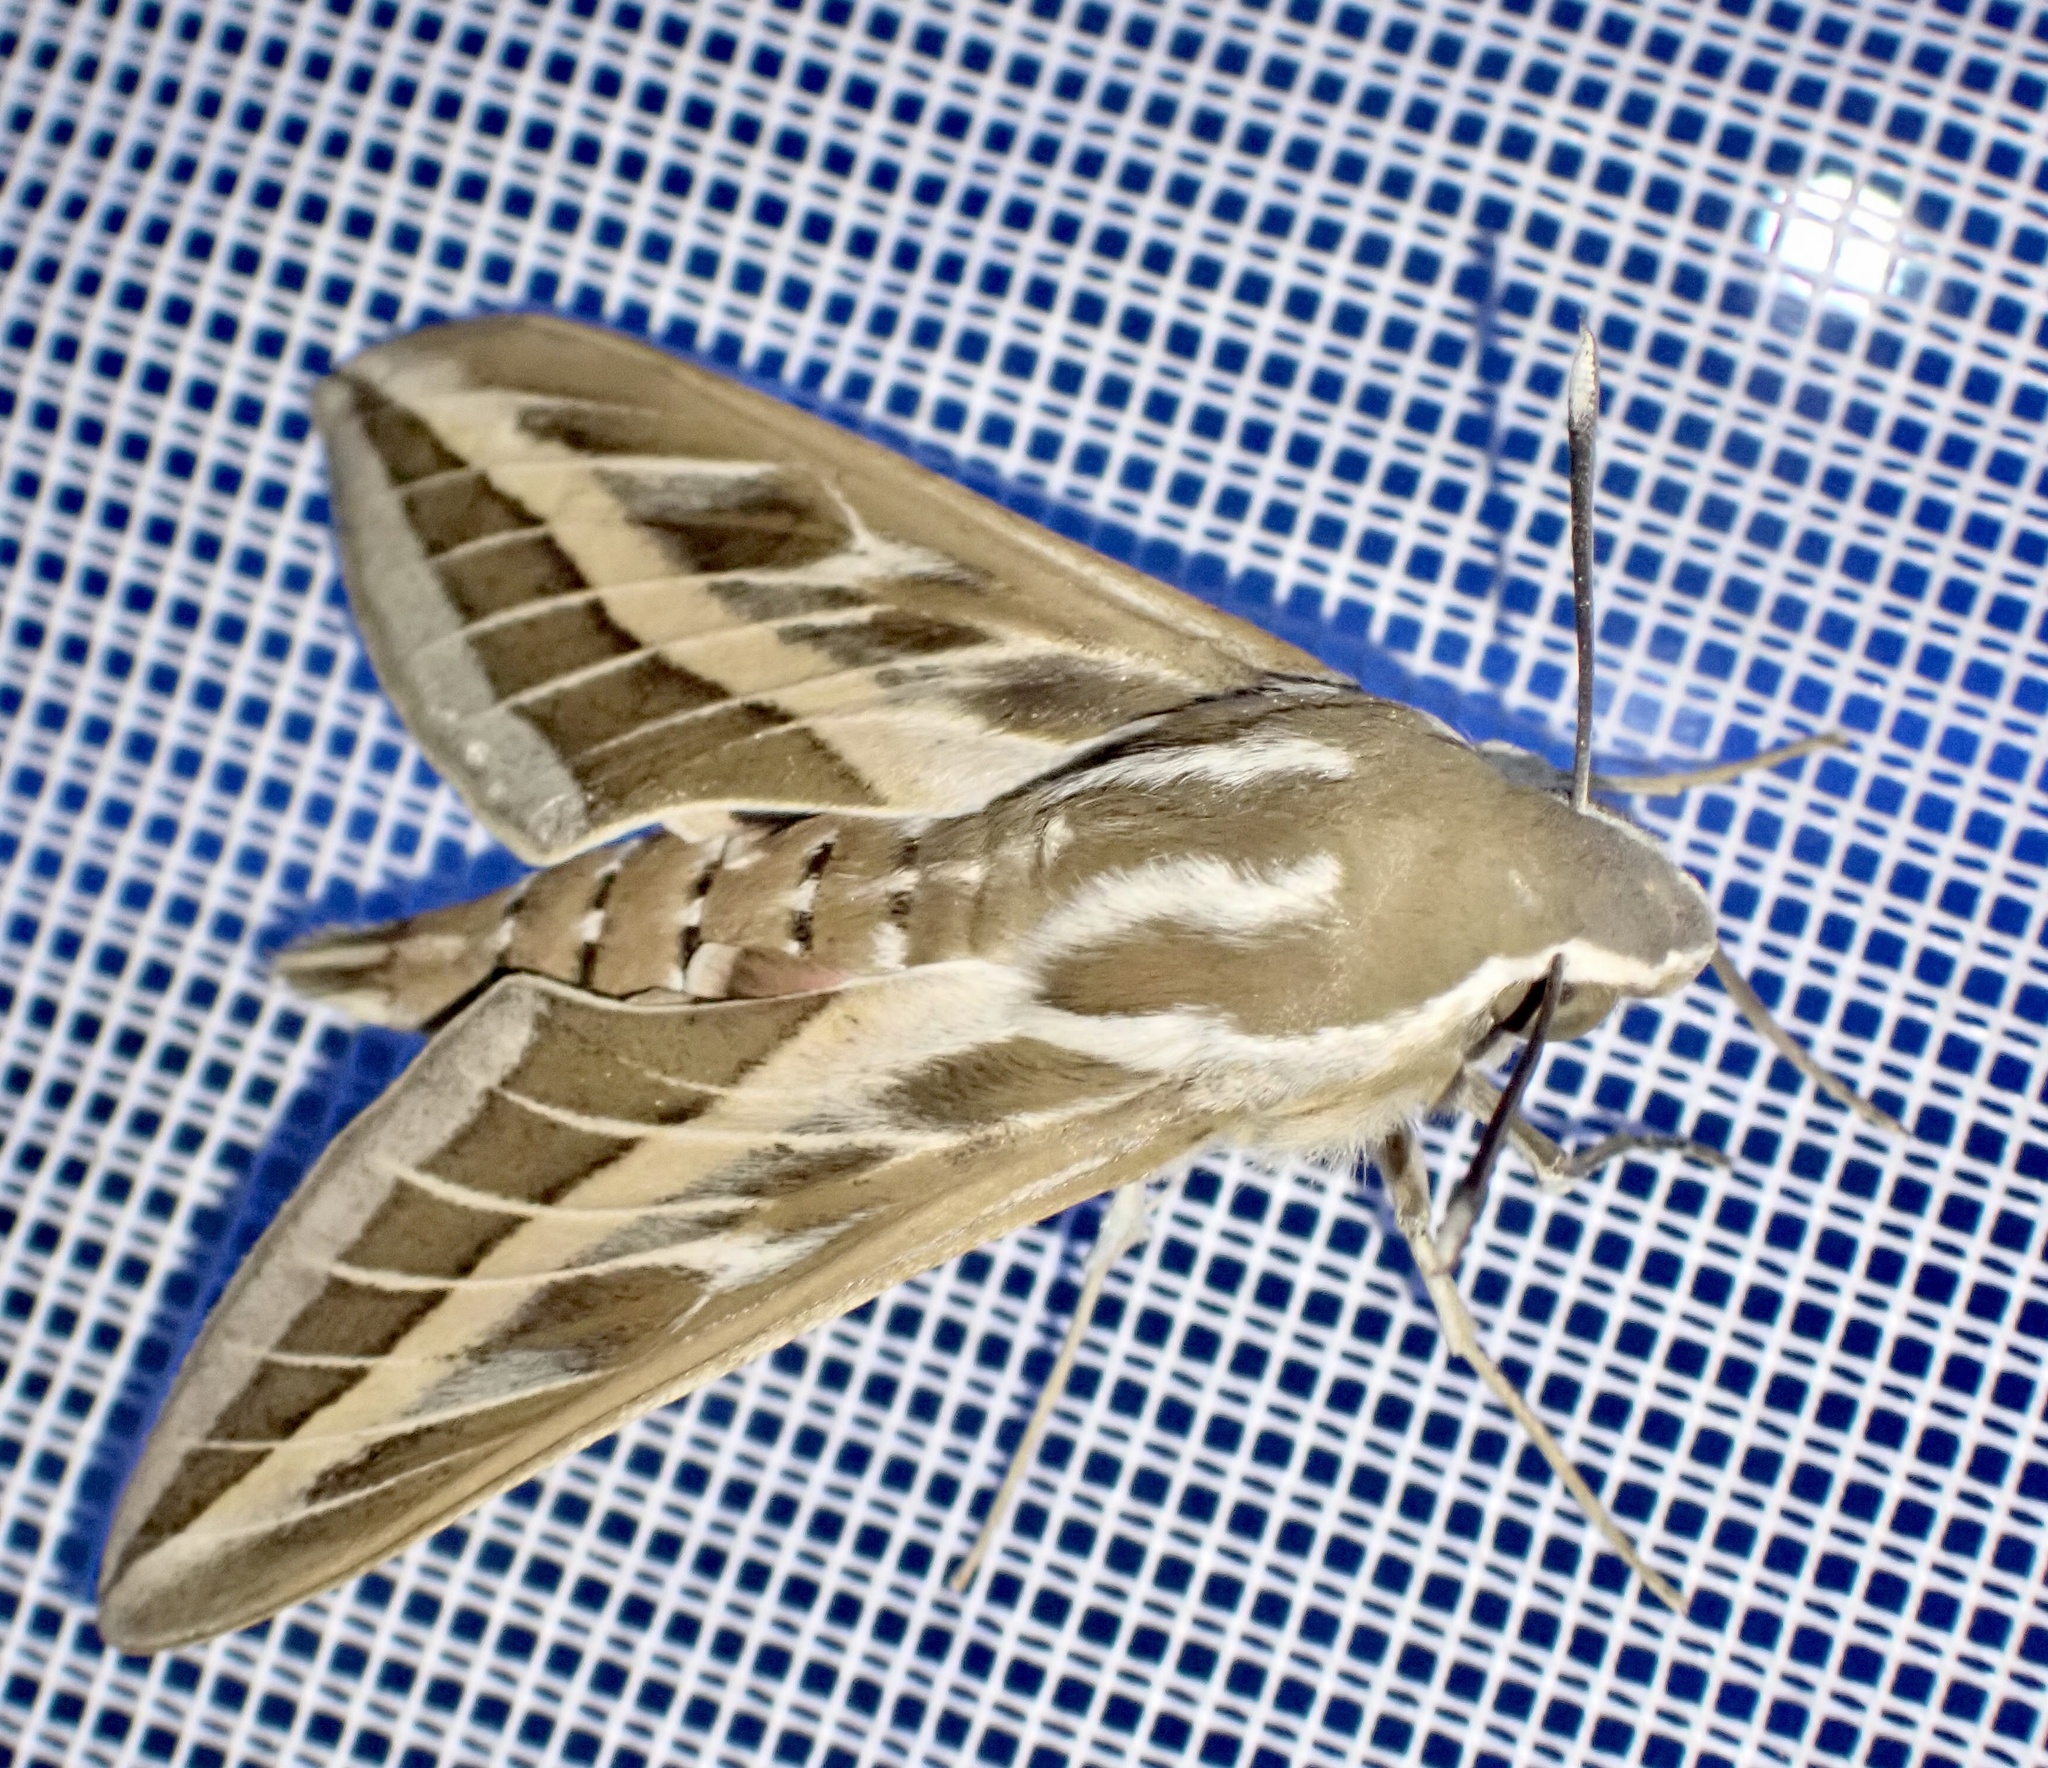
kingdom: Animalia
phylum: Arthropoda
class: Insecta
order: Lepidoptera
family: Sphingidae
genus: Hyles
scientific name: Hyles livornica
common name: Striped hawk-moth
